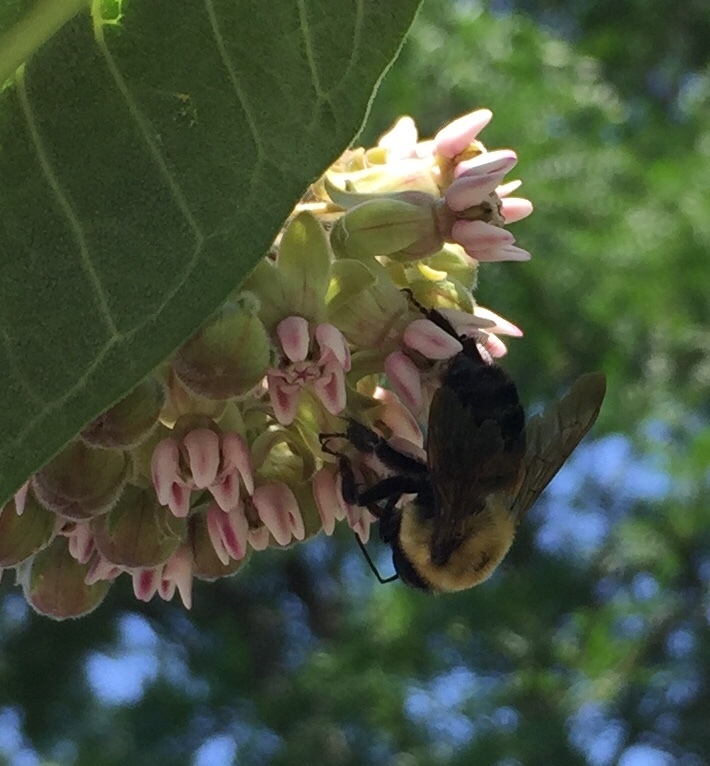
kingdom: Animalia
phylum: Arthropoda
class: Insecta
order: Hymenoptera
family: Apidae
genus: Bombus
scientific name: Bombus griseocollis
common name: Brown-belted bumble bee
